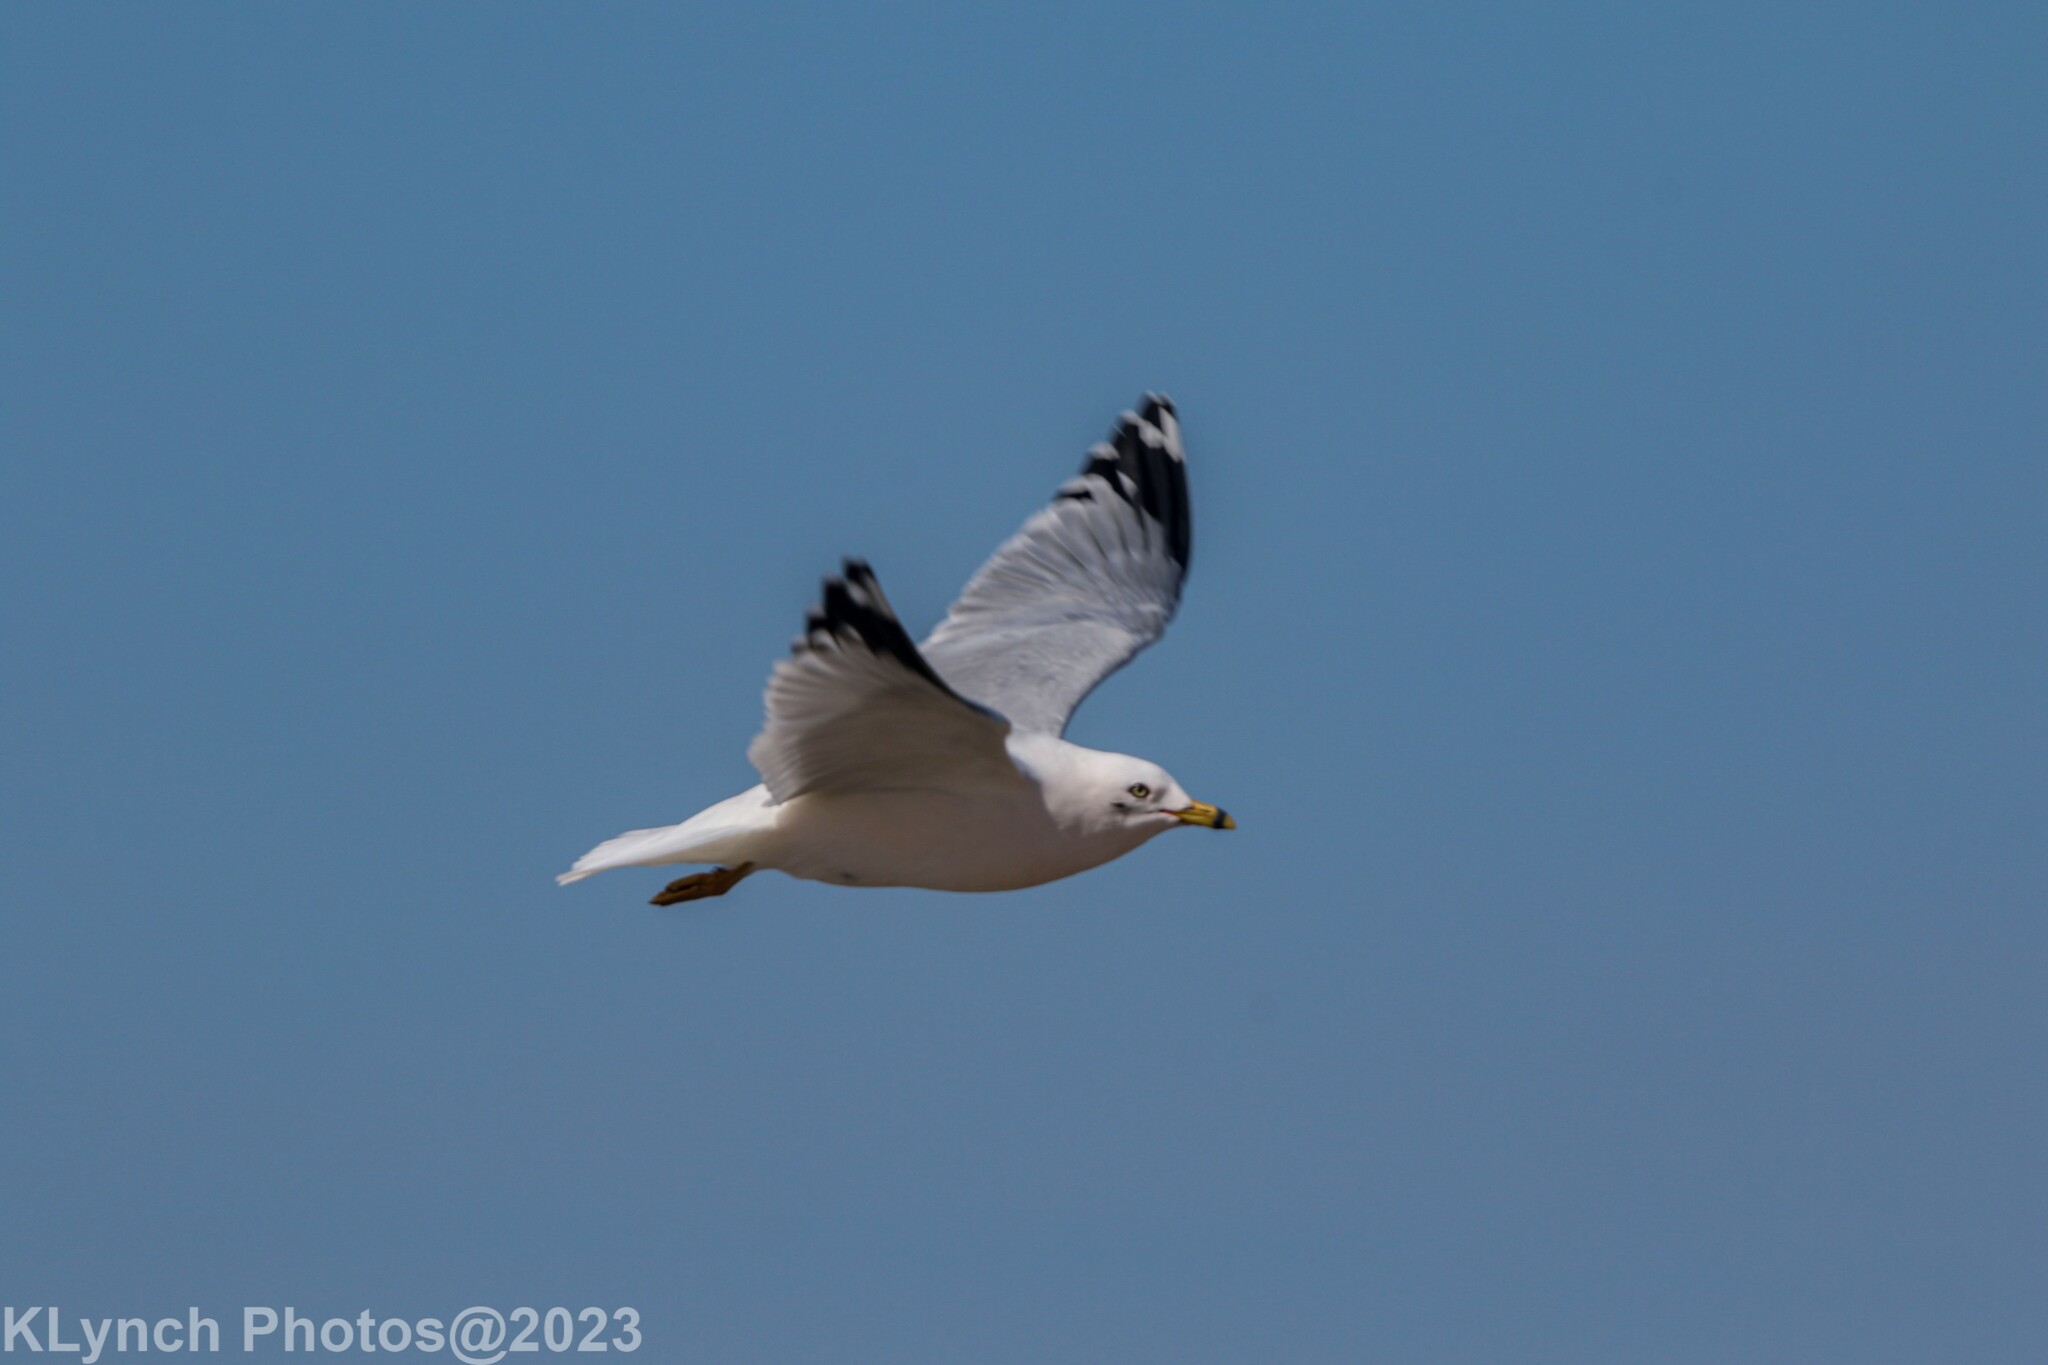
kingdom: Animalia
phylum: Chordata
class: Aves
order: Charadriiformes
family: Laridae
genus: Larus
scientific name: Larus delawarensis
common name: Ring-billed gull
